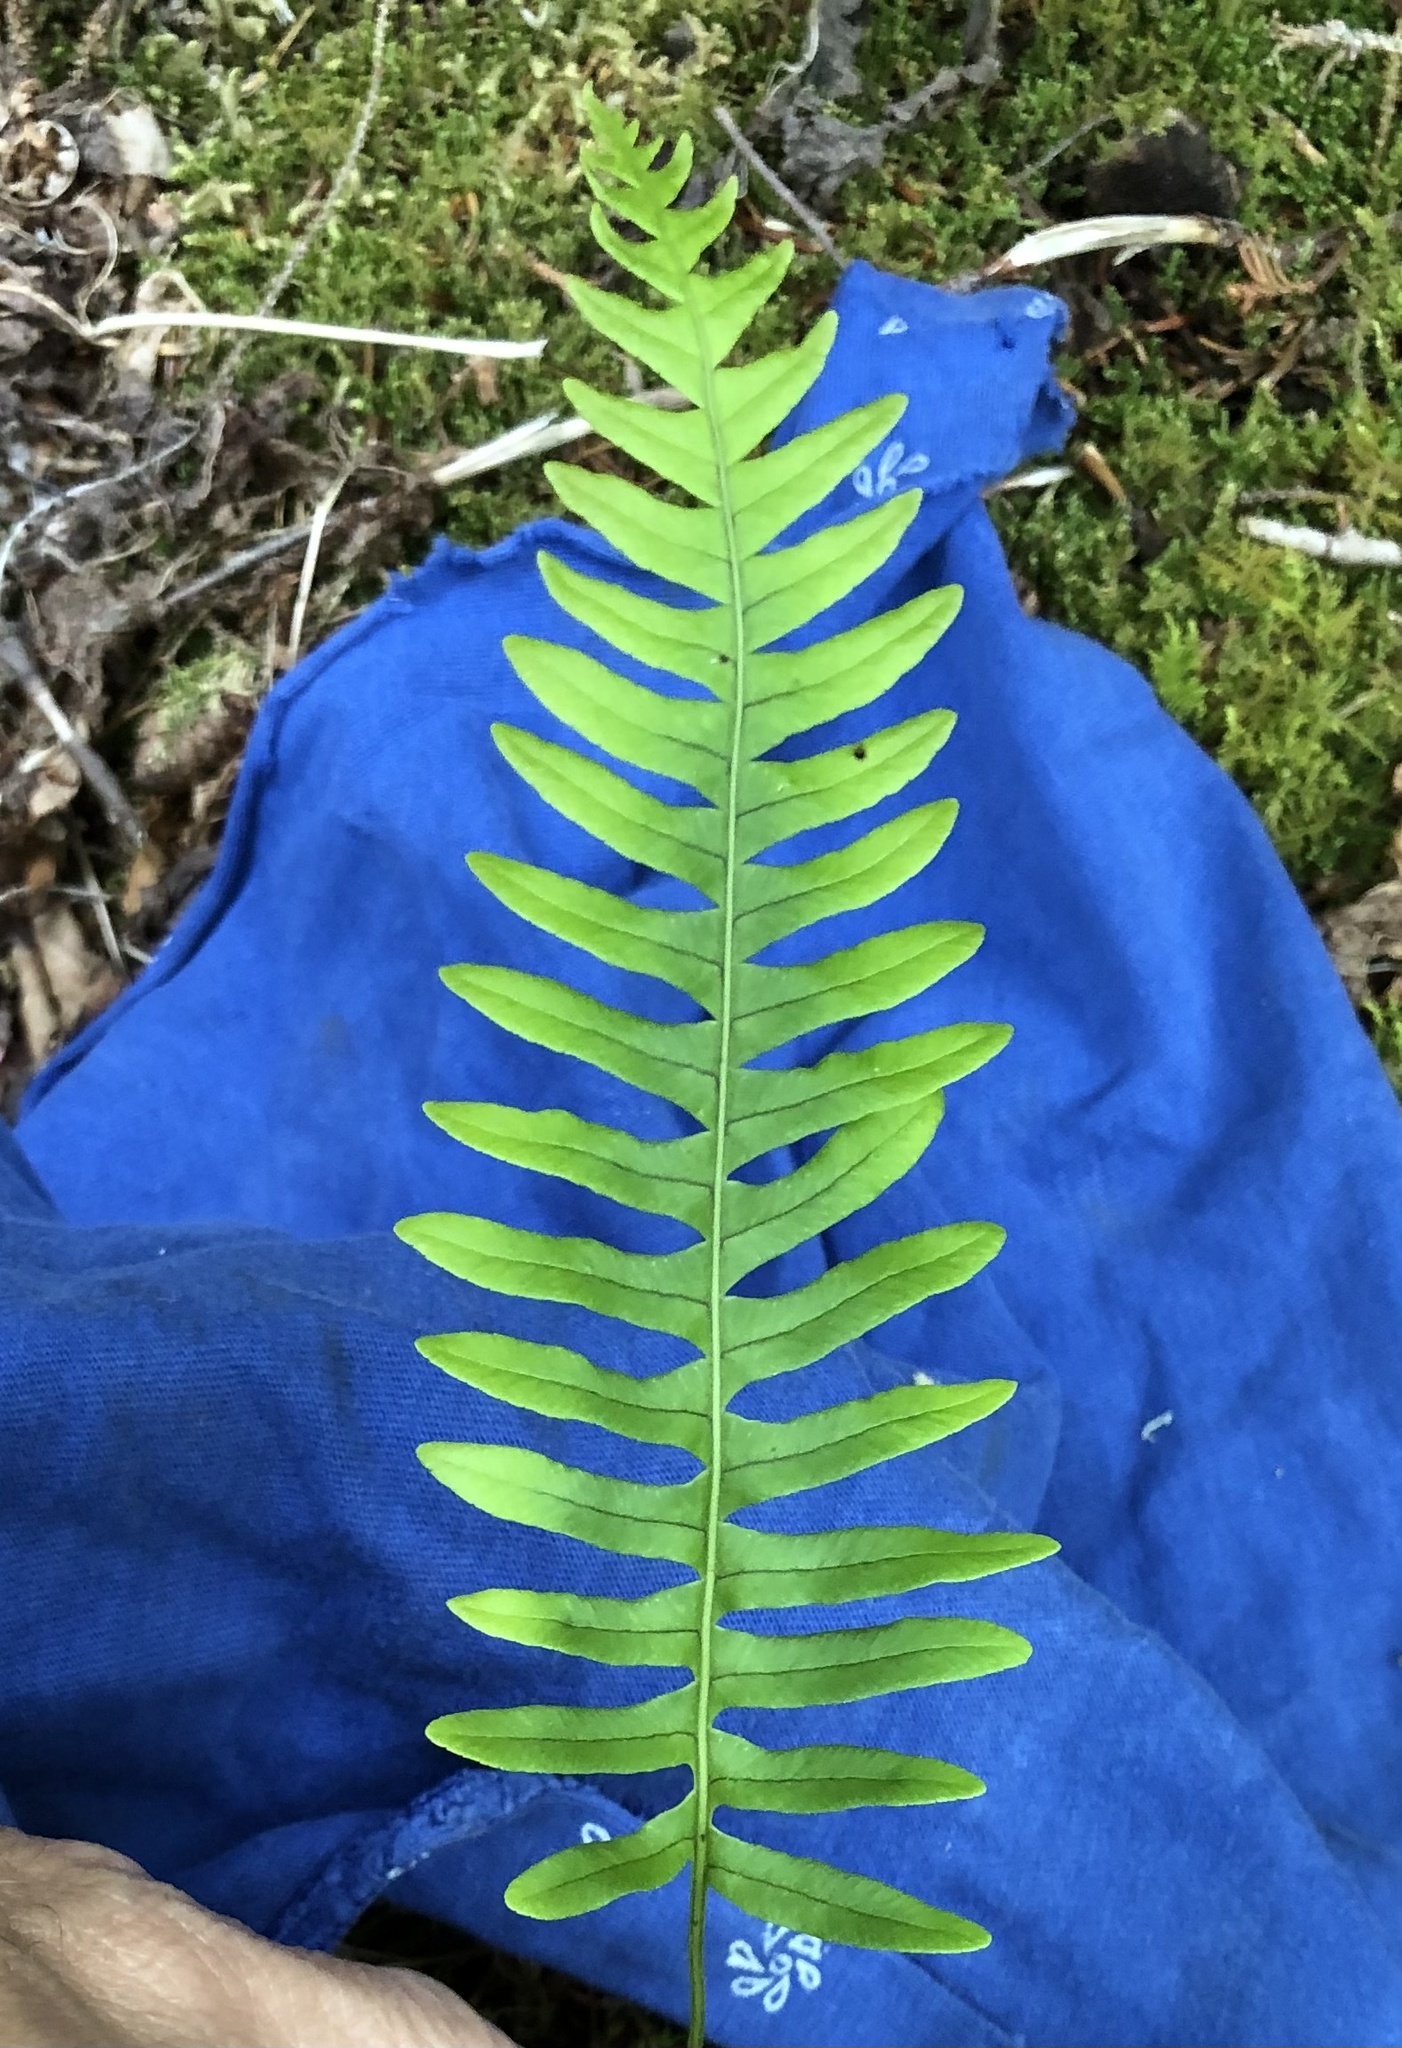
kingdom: Plantae
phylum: Tracheophyta
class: Polypodiopsida
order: Polypodiales
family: Polypodiaceae
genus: Polypodium
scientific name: Polypodium virginianum
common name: American wall fern
